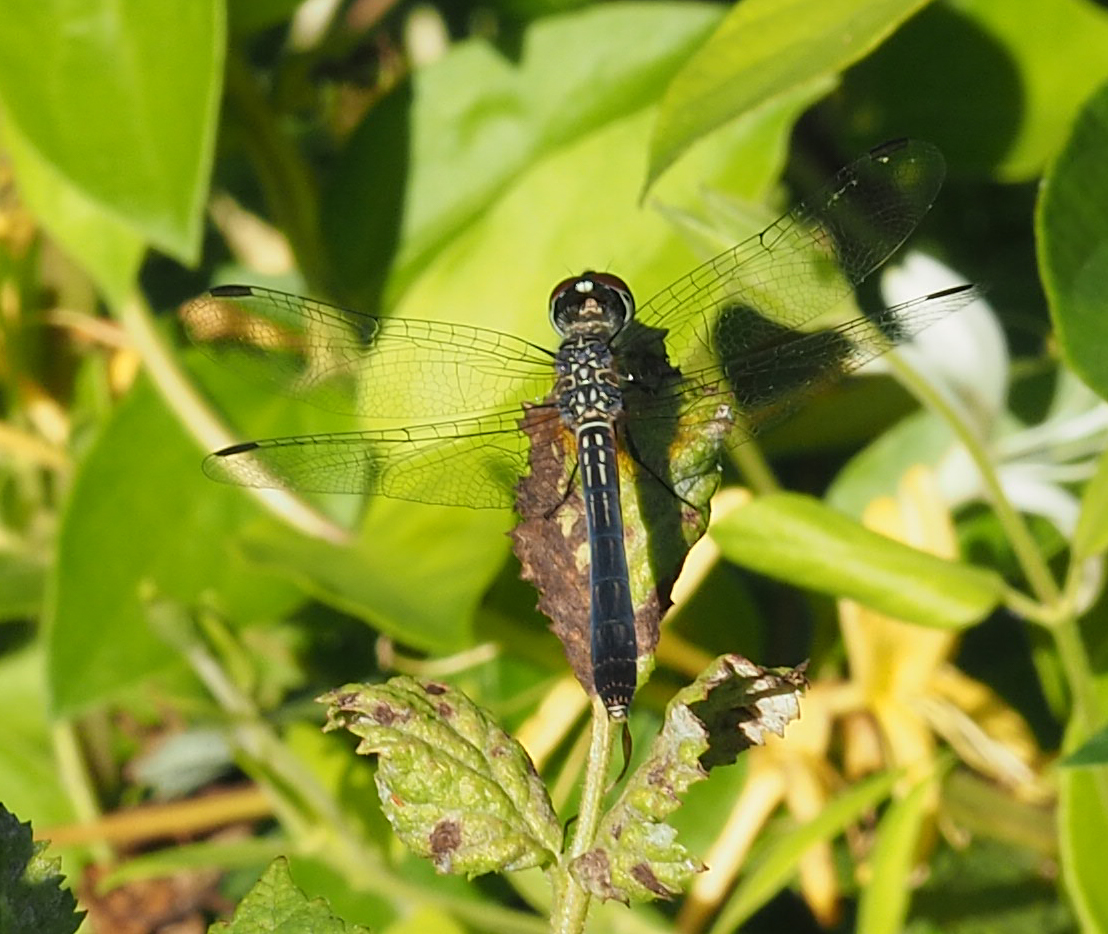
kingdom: Animalia
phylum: Arthropoda
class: Insecta
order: Odonata
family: Libellulidae
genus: Pachydiplax
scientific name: Pachydiplax longipennis
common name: Blue dasher
